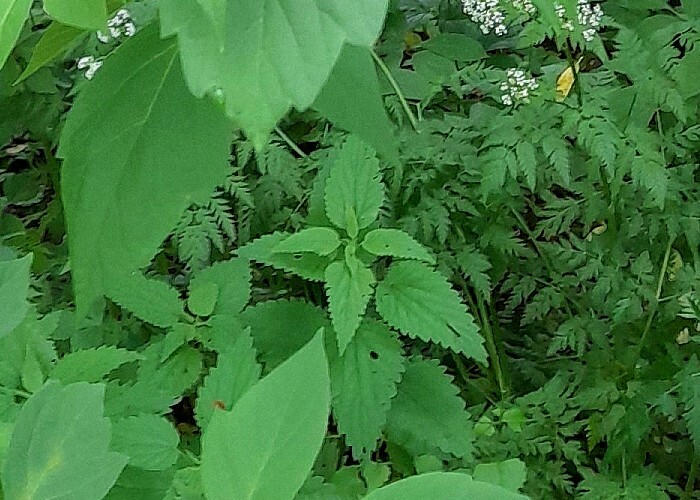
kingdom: Plantae
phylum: Tracheophyta
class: Magnoliopsida
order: Rosales
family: Urticaceae
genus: Urtica
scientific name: Urtica dioica
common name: Common nettle
